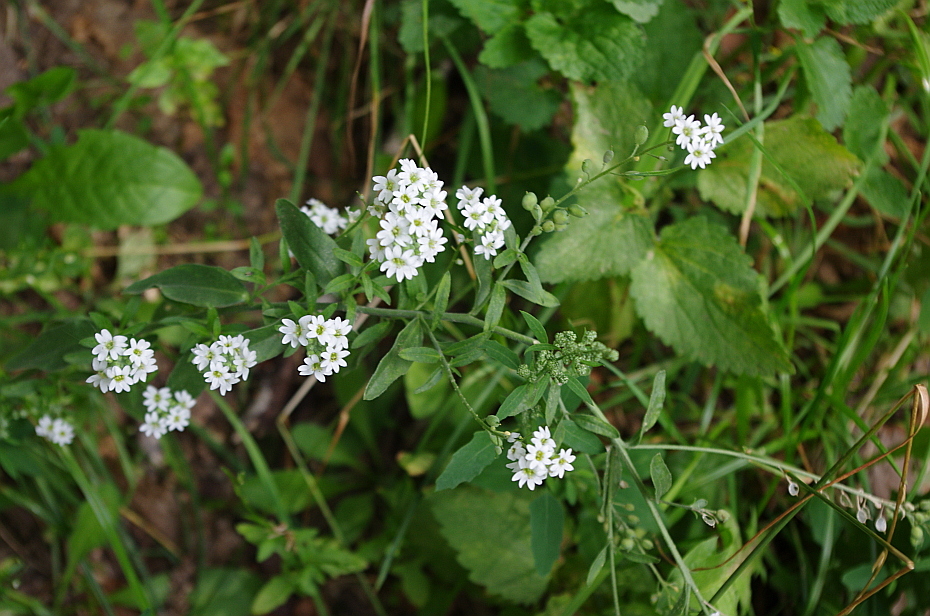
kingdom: Plantae
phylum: Tracheophyta
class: Magnoliopsida
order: Brassicales
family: Brassicaceae
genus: Berteroa
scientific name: Berteroa incana
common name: Hoary alison
